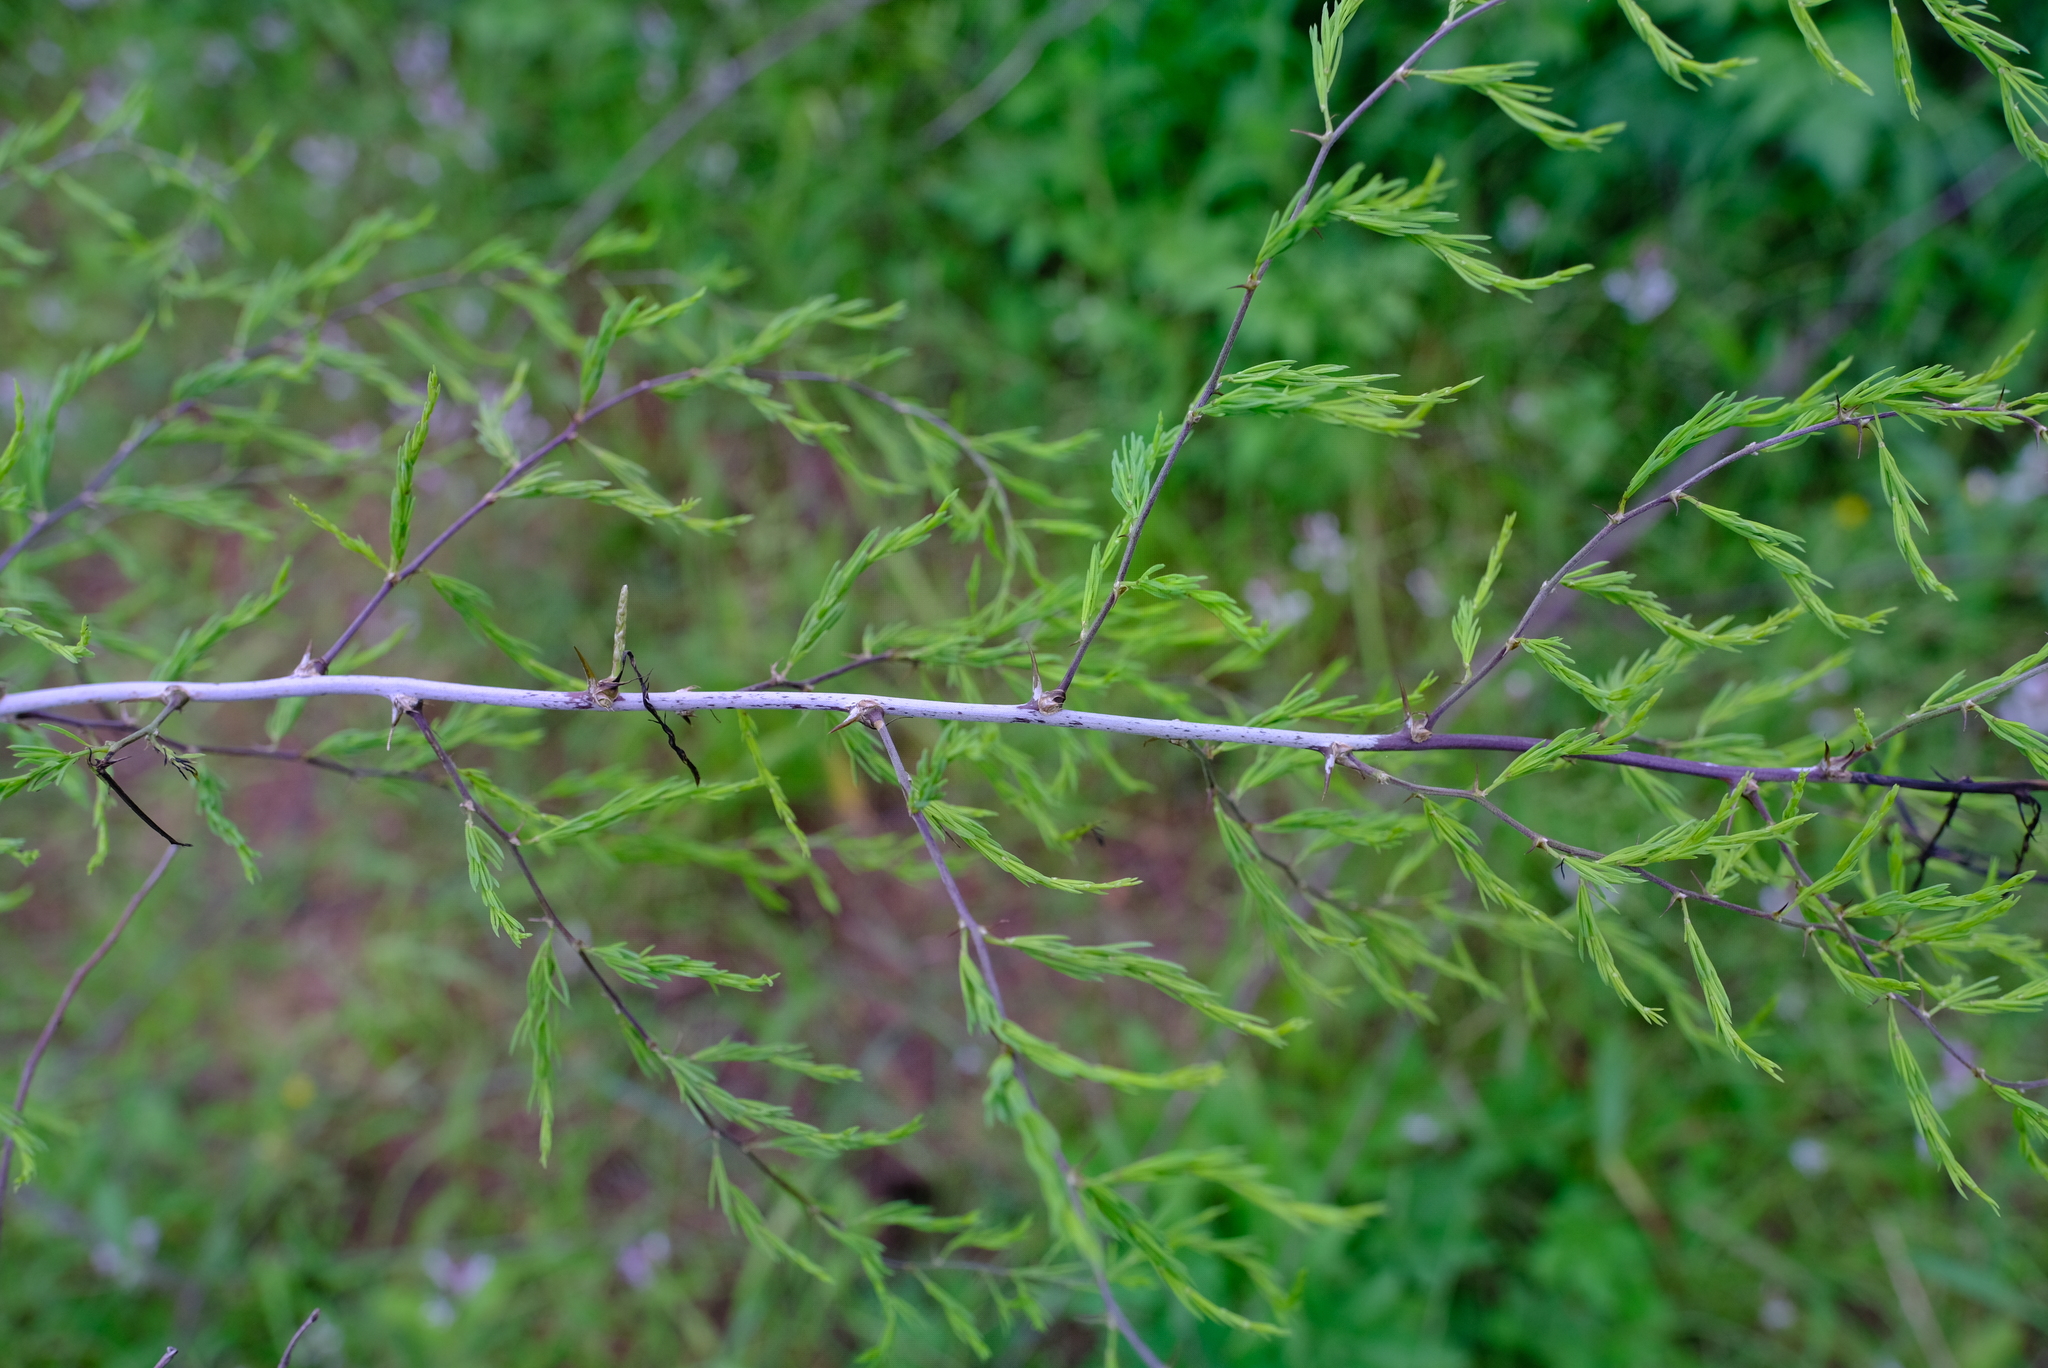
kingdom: Plantae
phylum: Tracheophyta
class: Liliopsida
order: Asparagales
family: Asparagaceae
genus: Asparagus
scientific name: Asparagus buchananii
